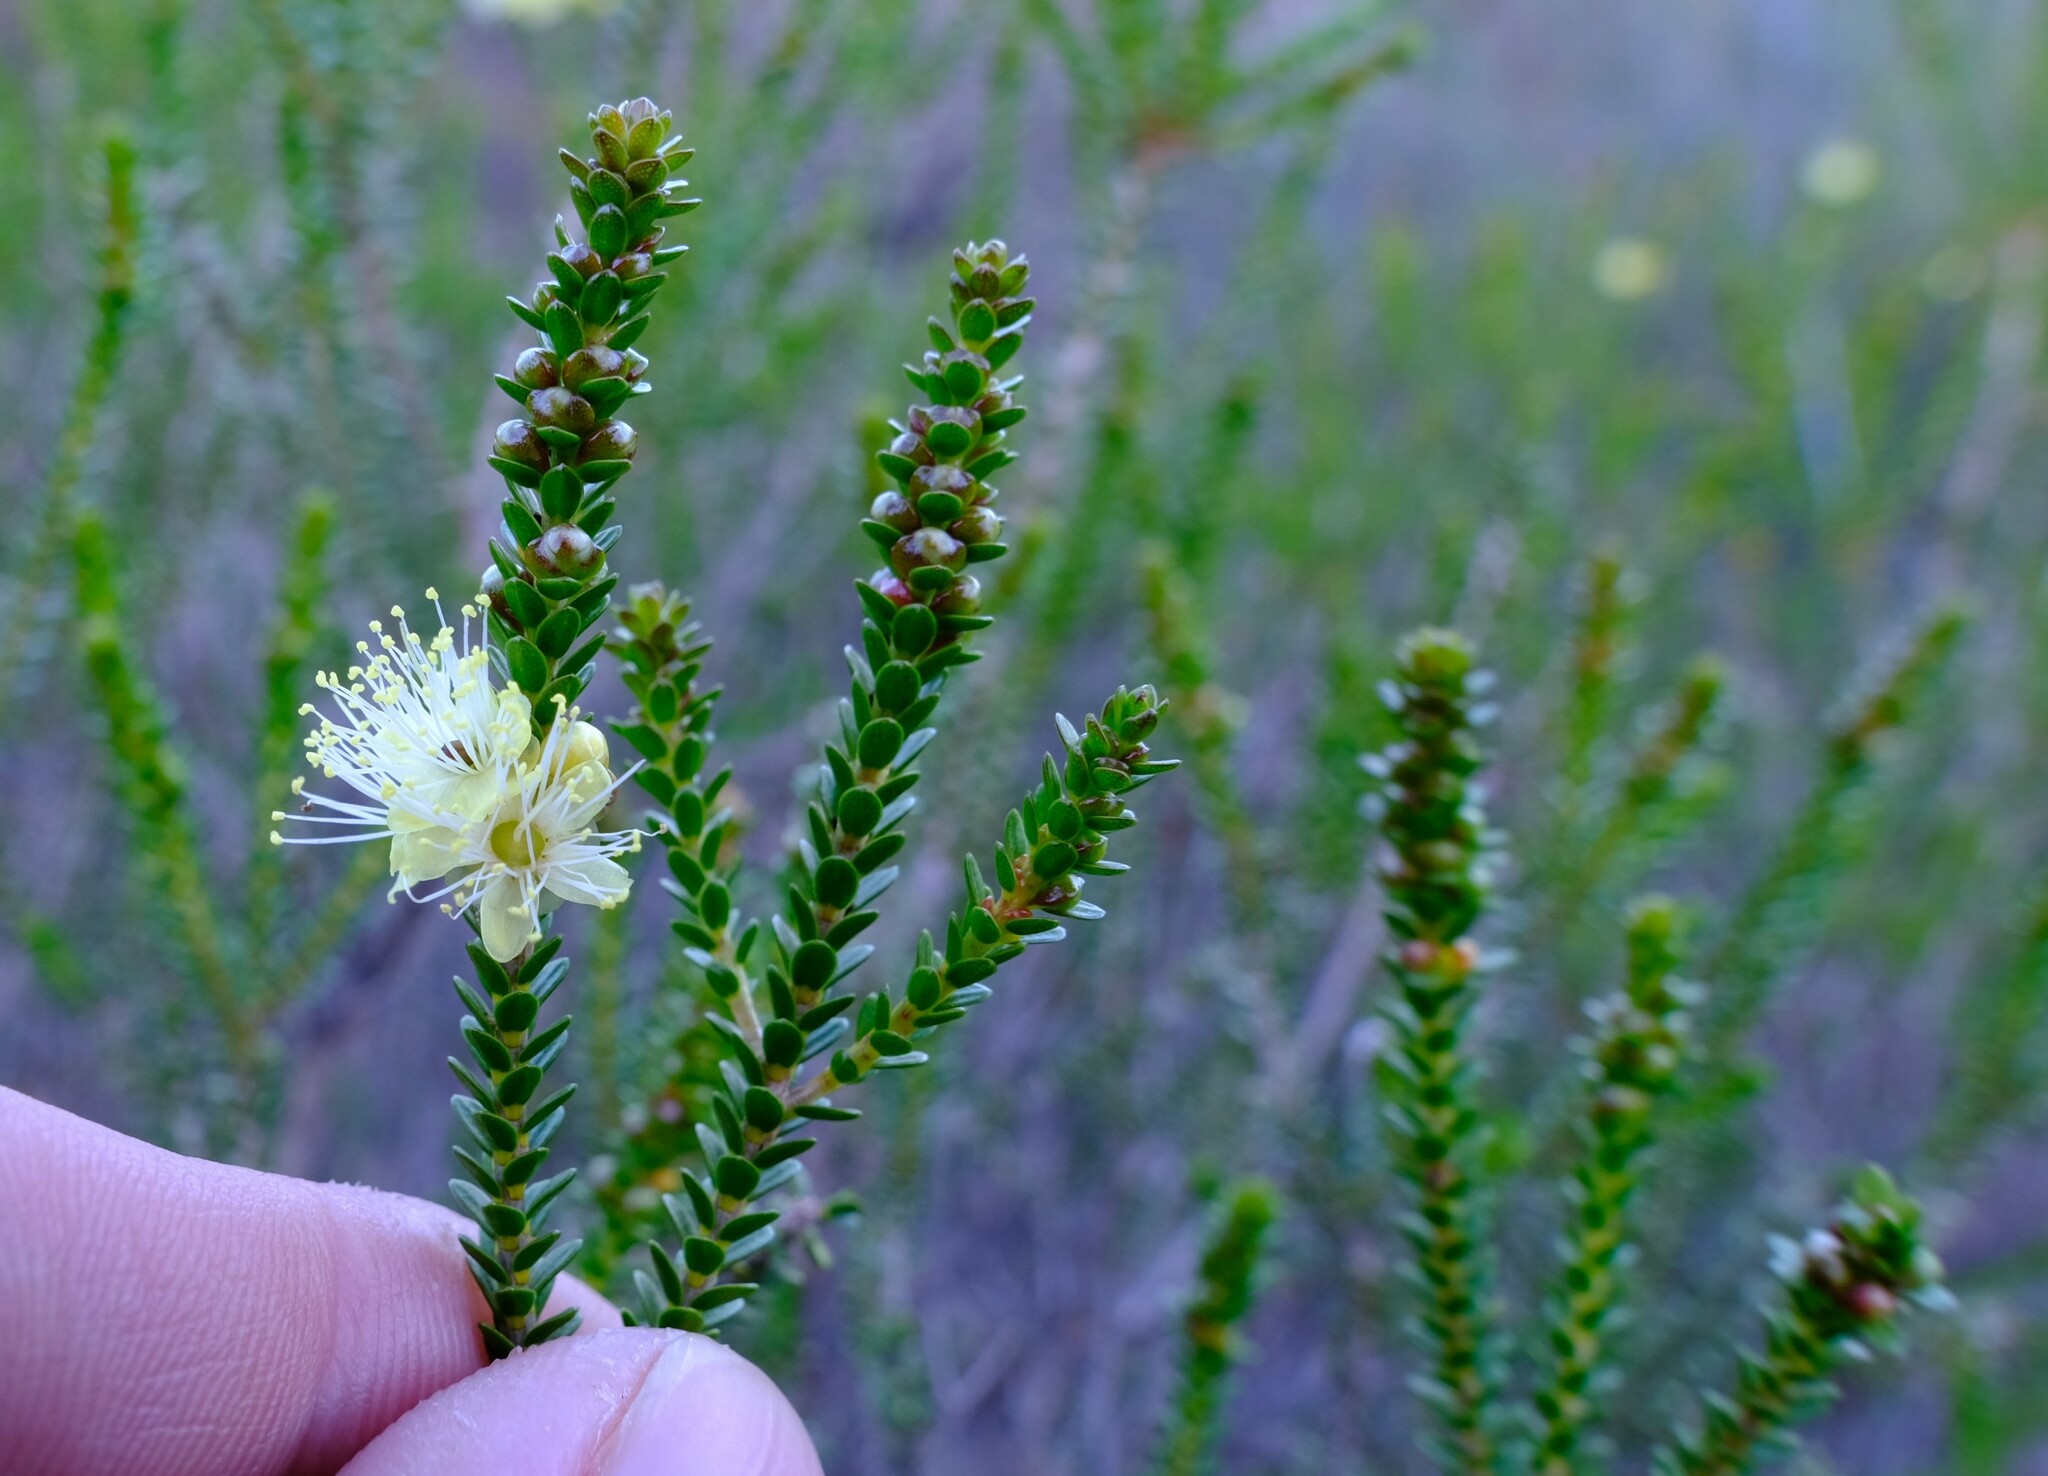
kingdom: Plantae
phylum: Tracheophyta
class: Magnoliopsida
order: Myrtales
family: Myrtaceae
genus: Homalocalyx
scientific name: Homalocalyx aureus
